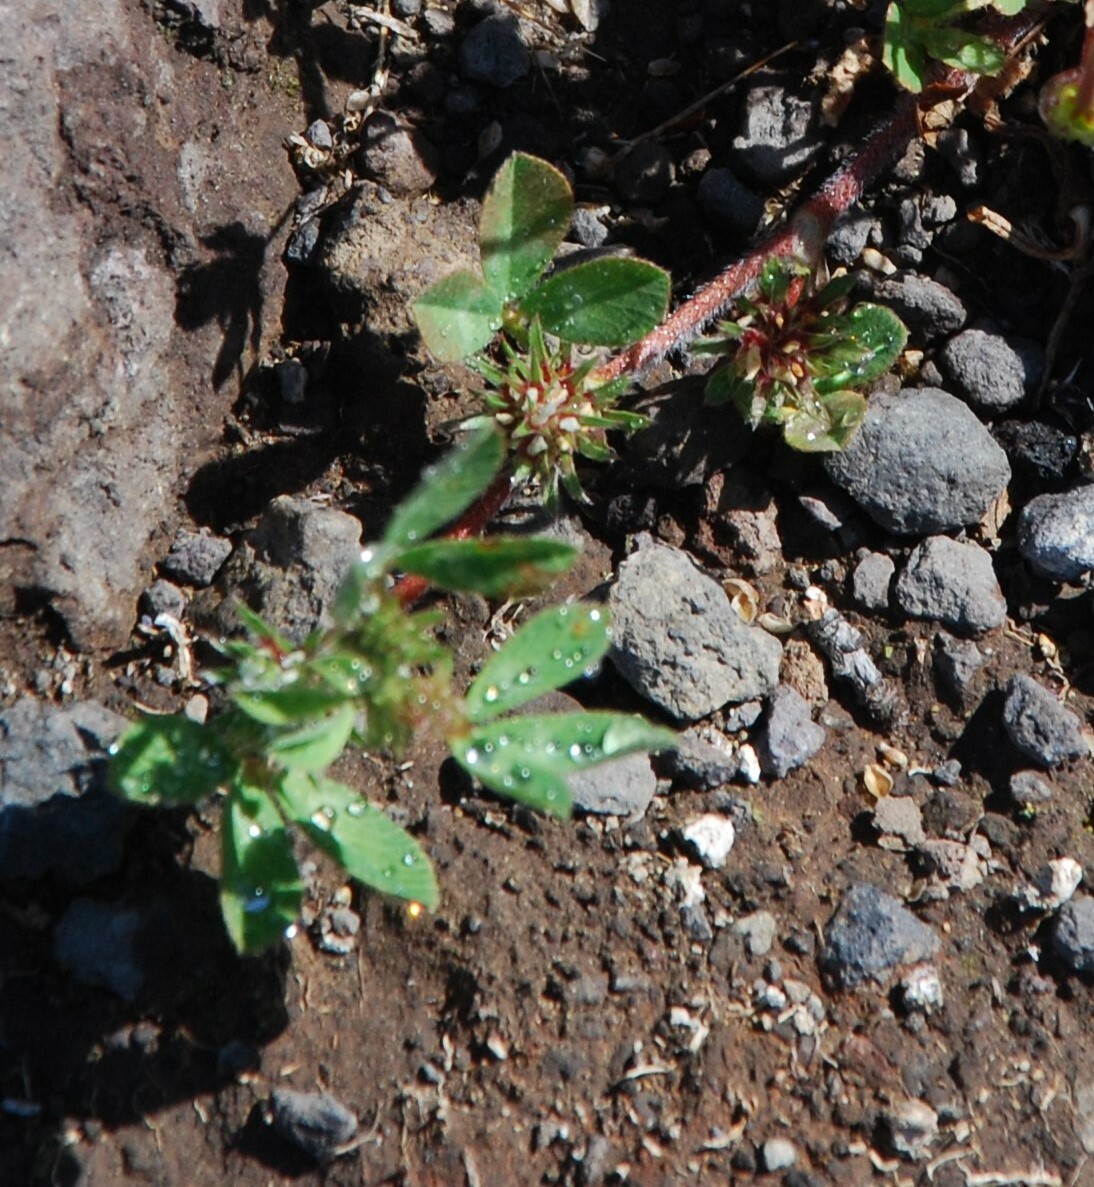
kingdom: Plantae
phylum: Tracheophyta
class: Magnoliopsida
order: Fabales
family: Fabaceae
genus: Trifolium
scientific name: Trifolium scabrum
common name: Rough clover
